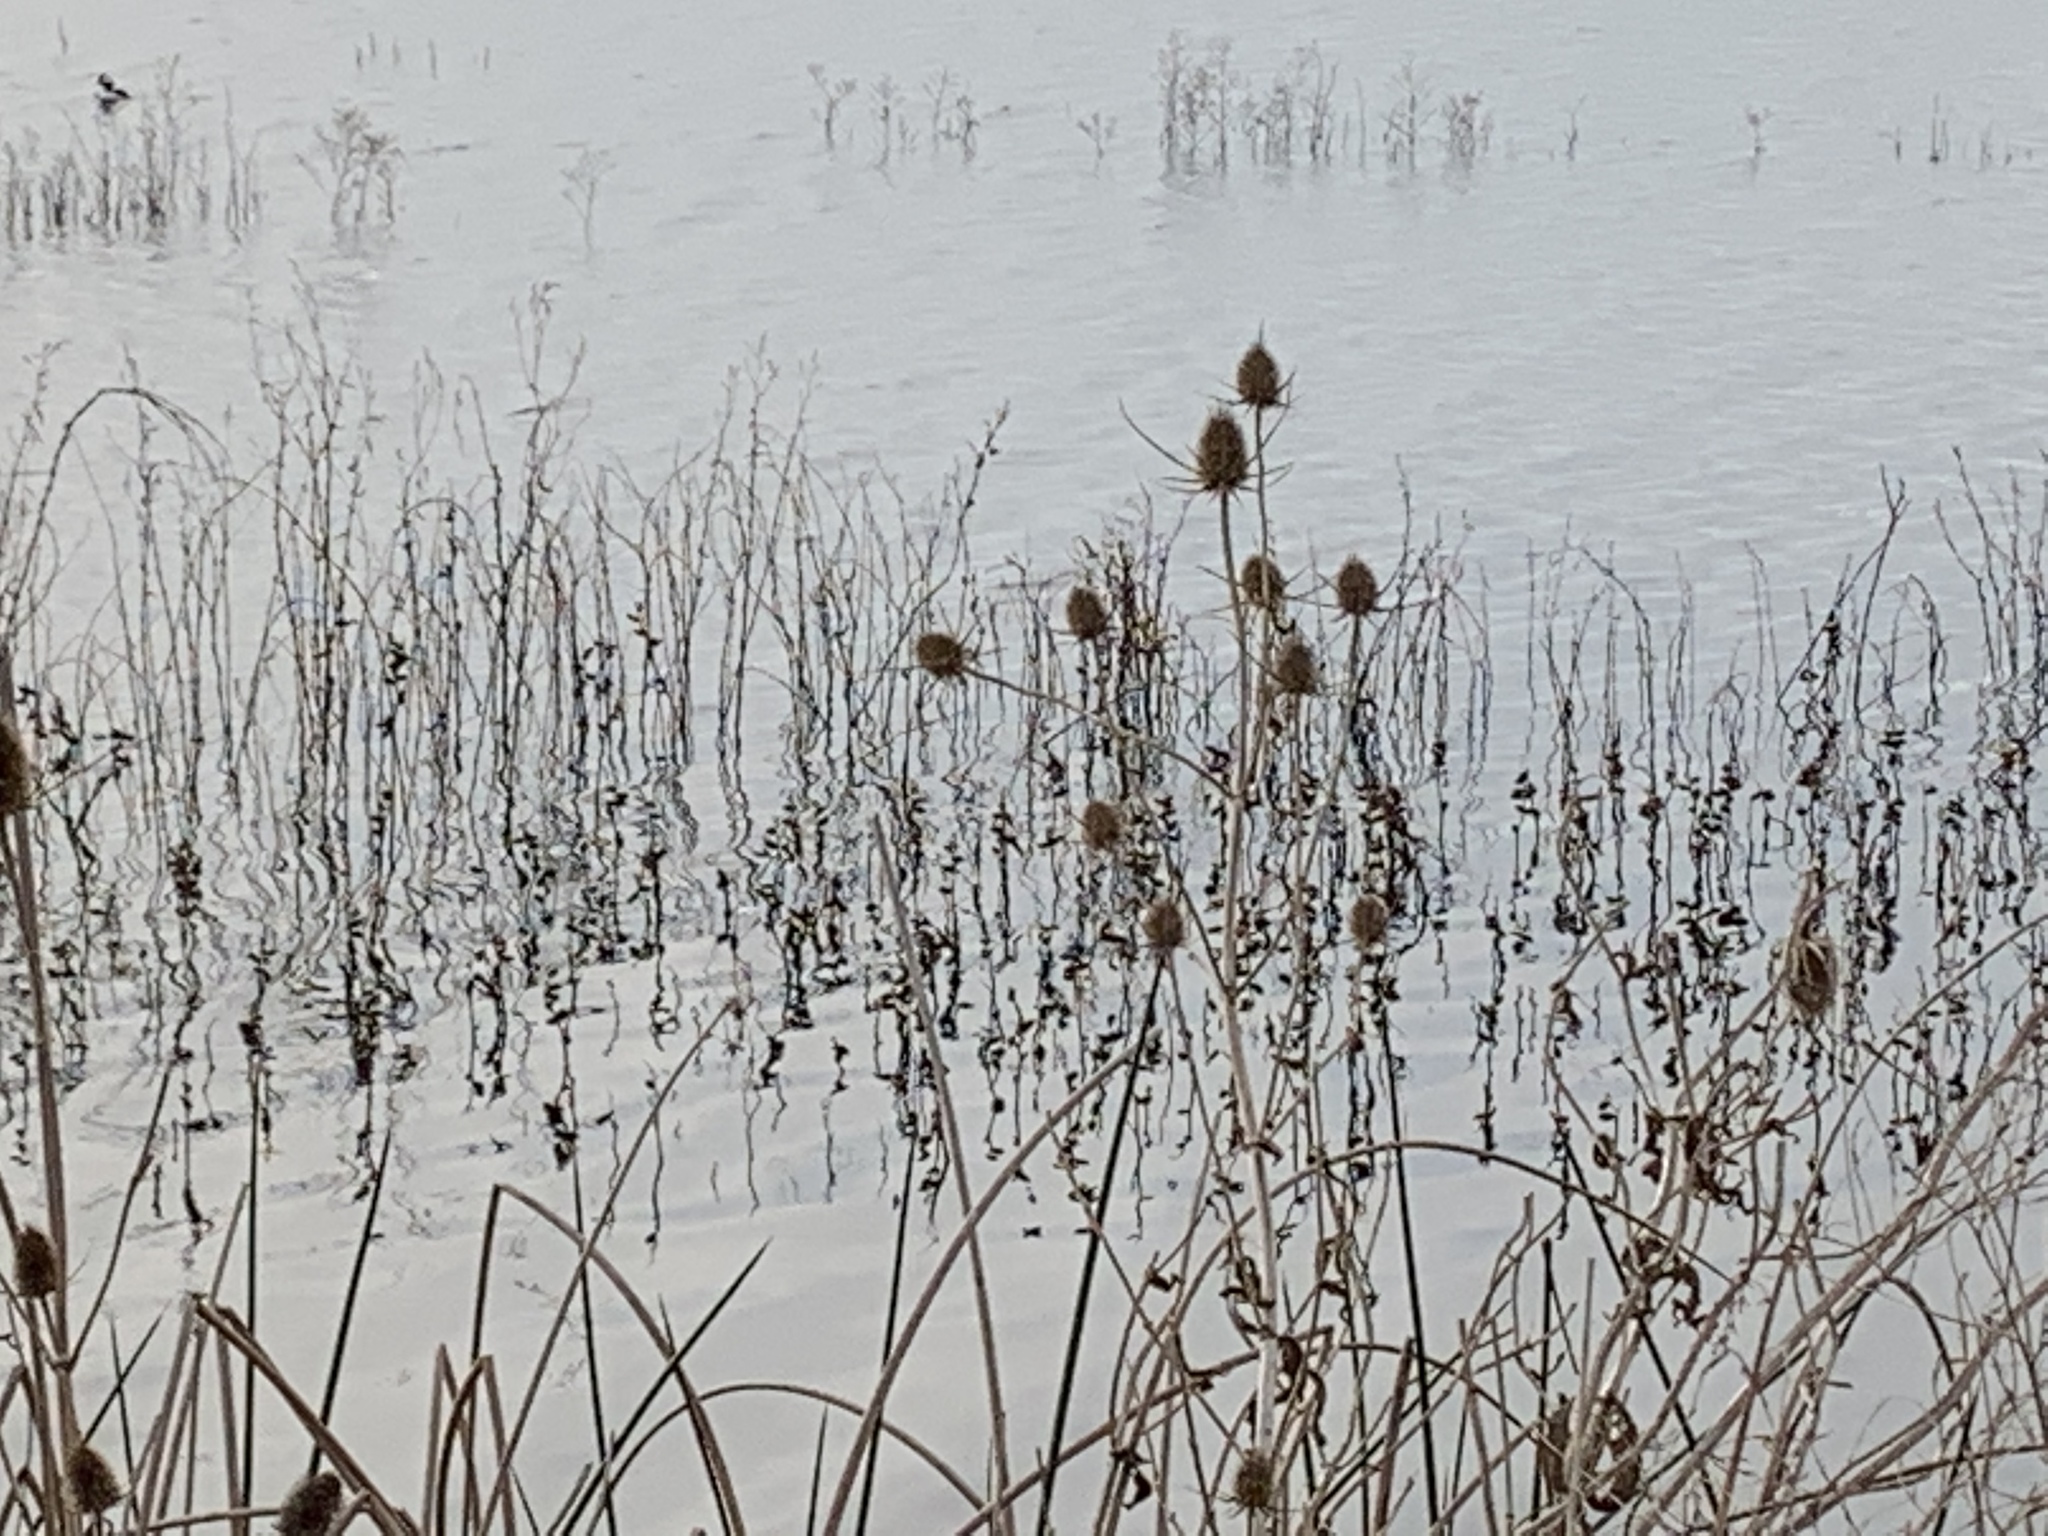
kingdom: Plantae
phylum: Tracheophyta
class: Magnoliopsida
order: Dipsacales
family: Caprifoliaceae
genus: Dipsacus
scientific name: Dipsacus fullonum
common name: Teasel
